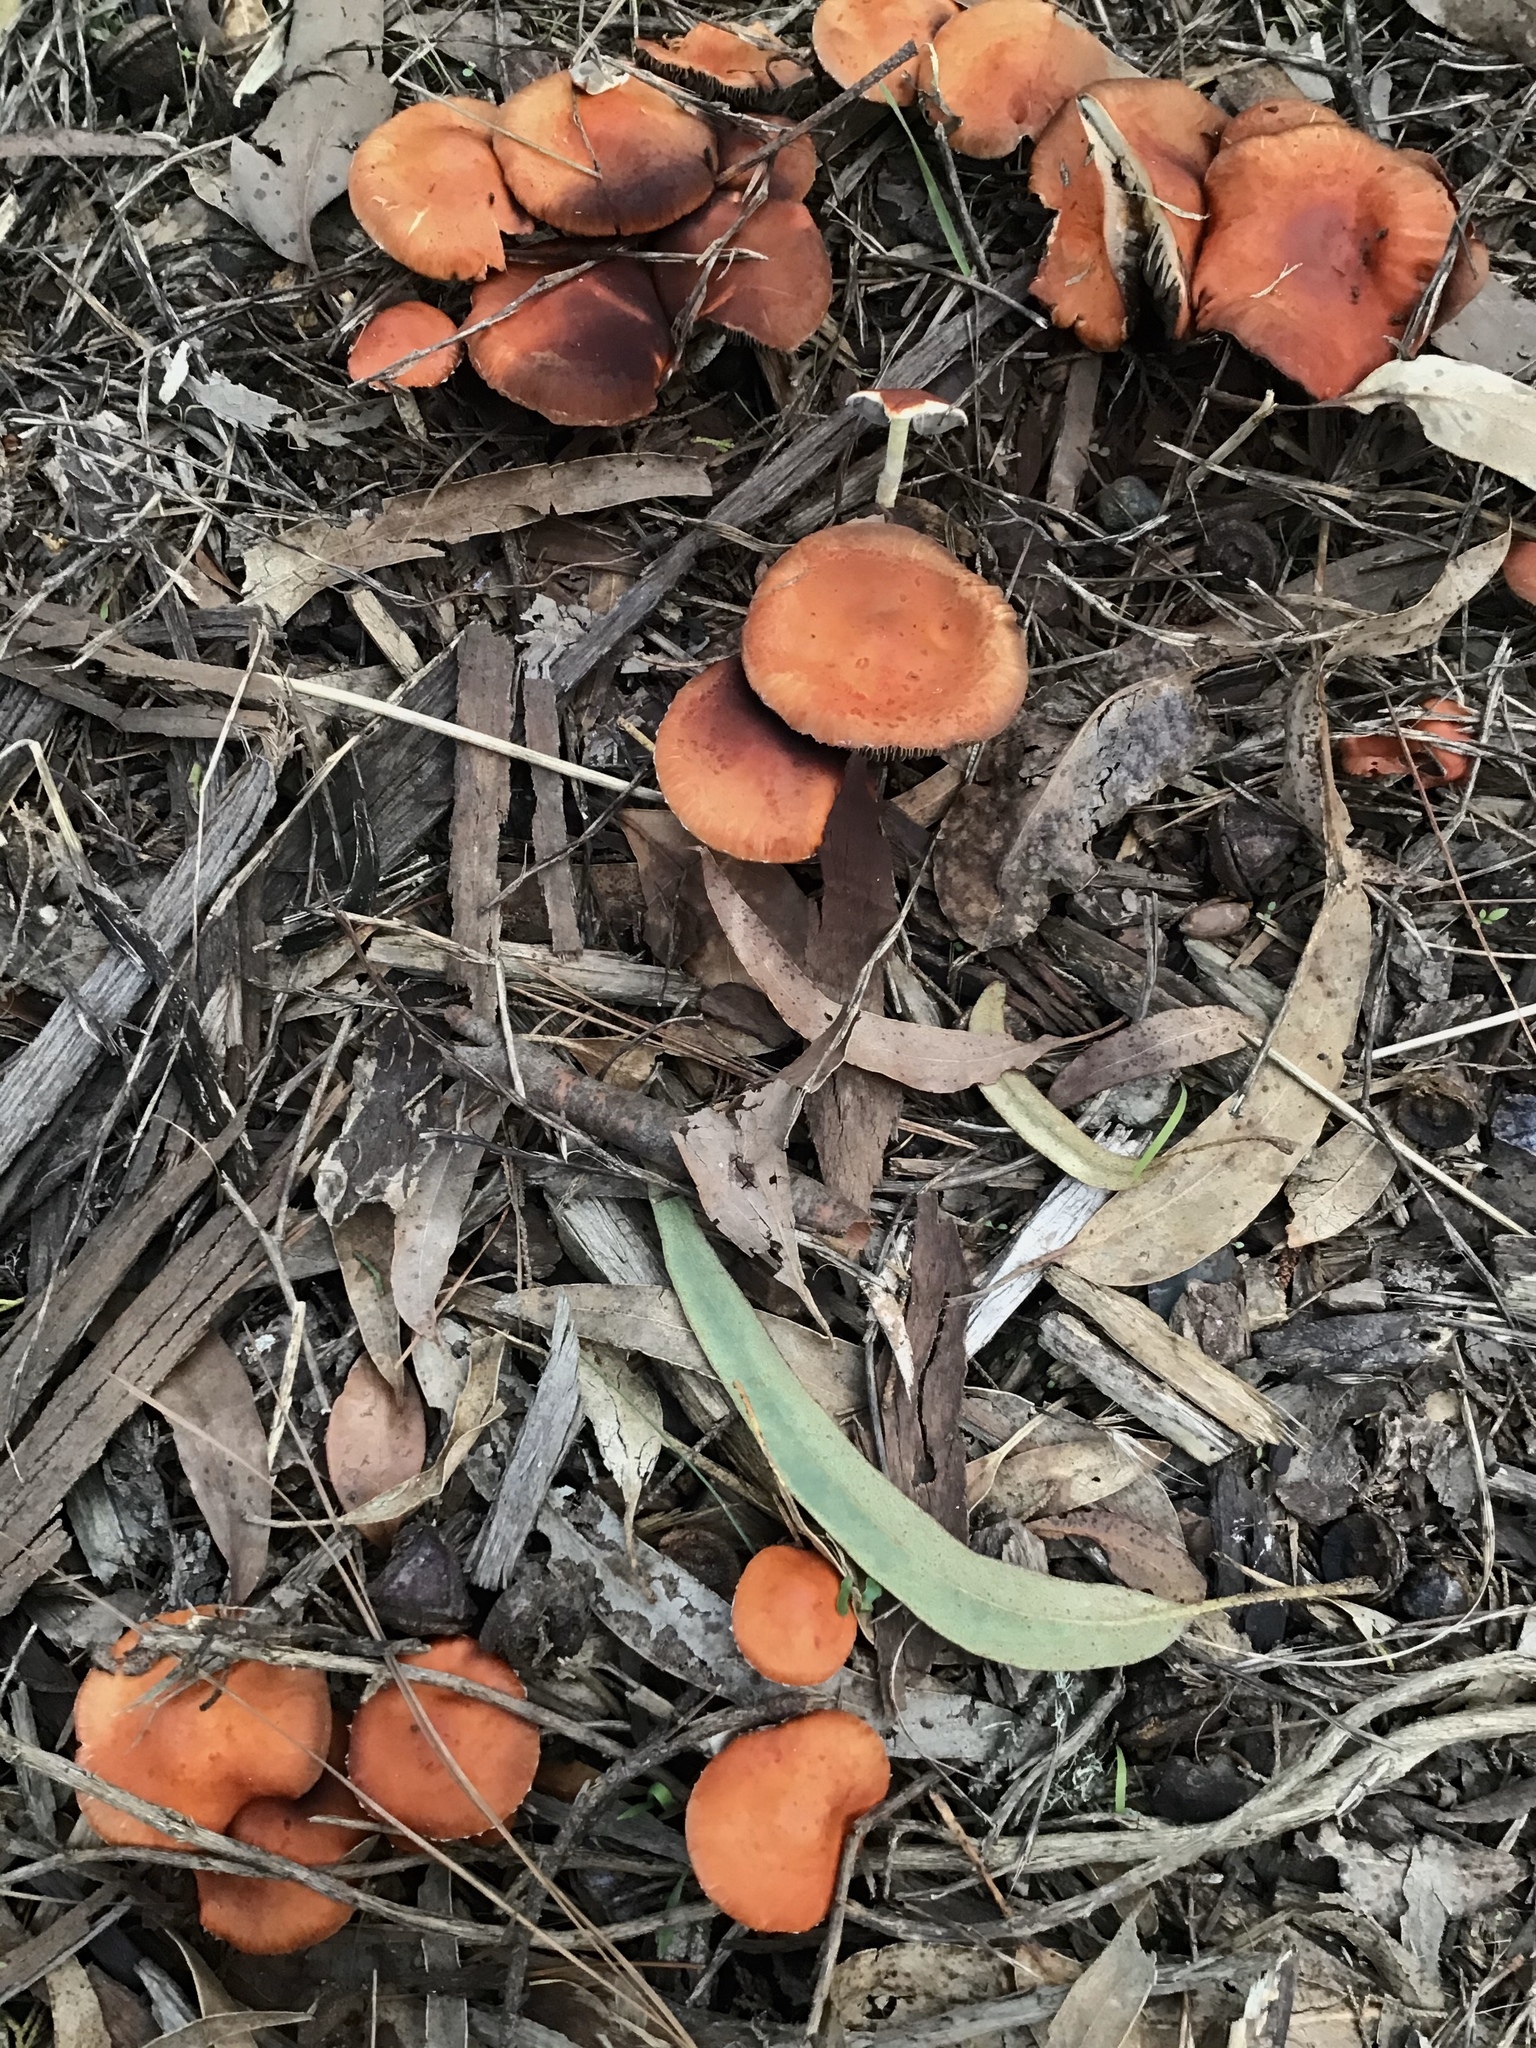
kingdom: Fungi
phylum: Basidiomycota
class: Agaricomycetes
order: Agaricales
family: Strophariaceae
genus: Leratiomyces
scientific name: Leratiomyces ceres
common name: Redlead roundhead
